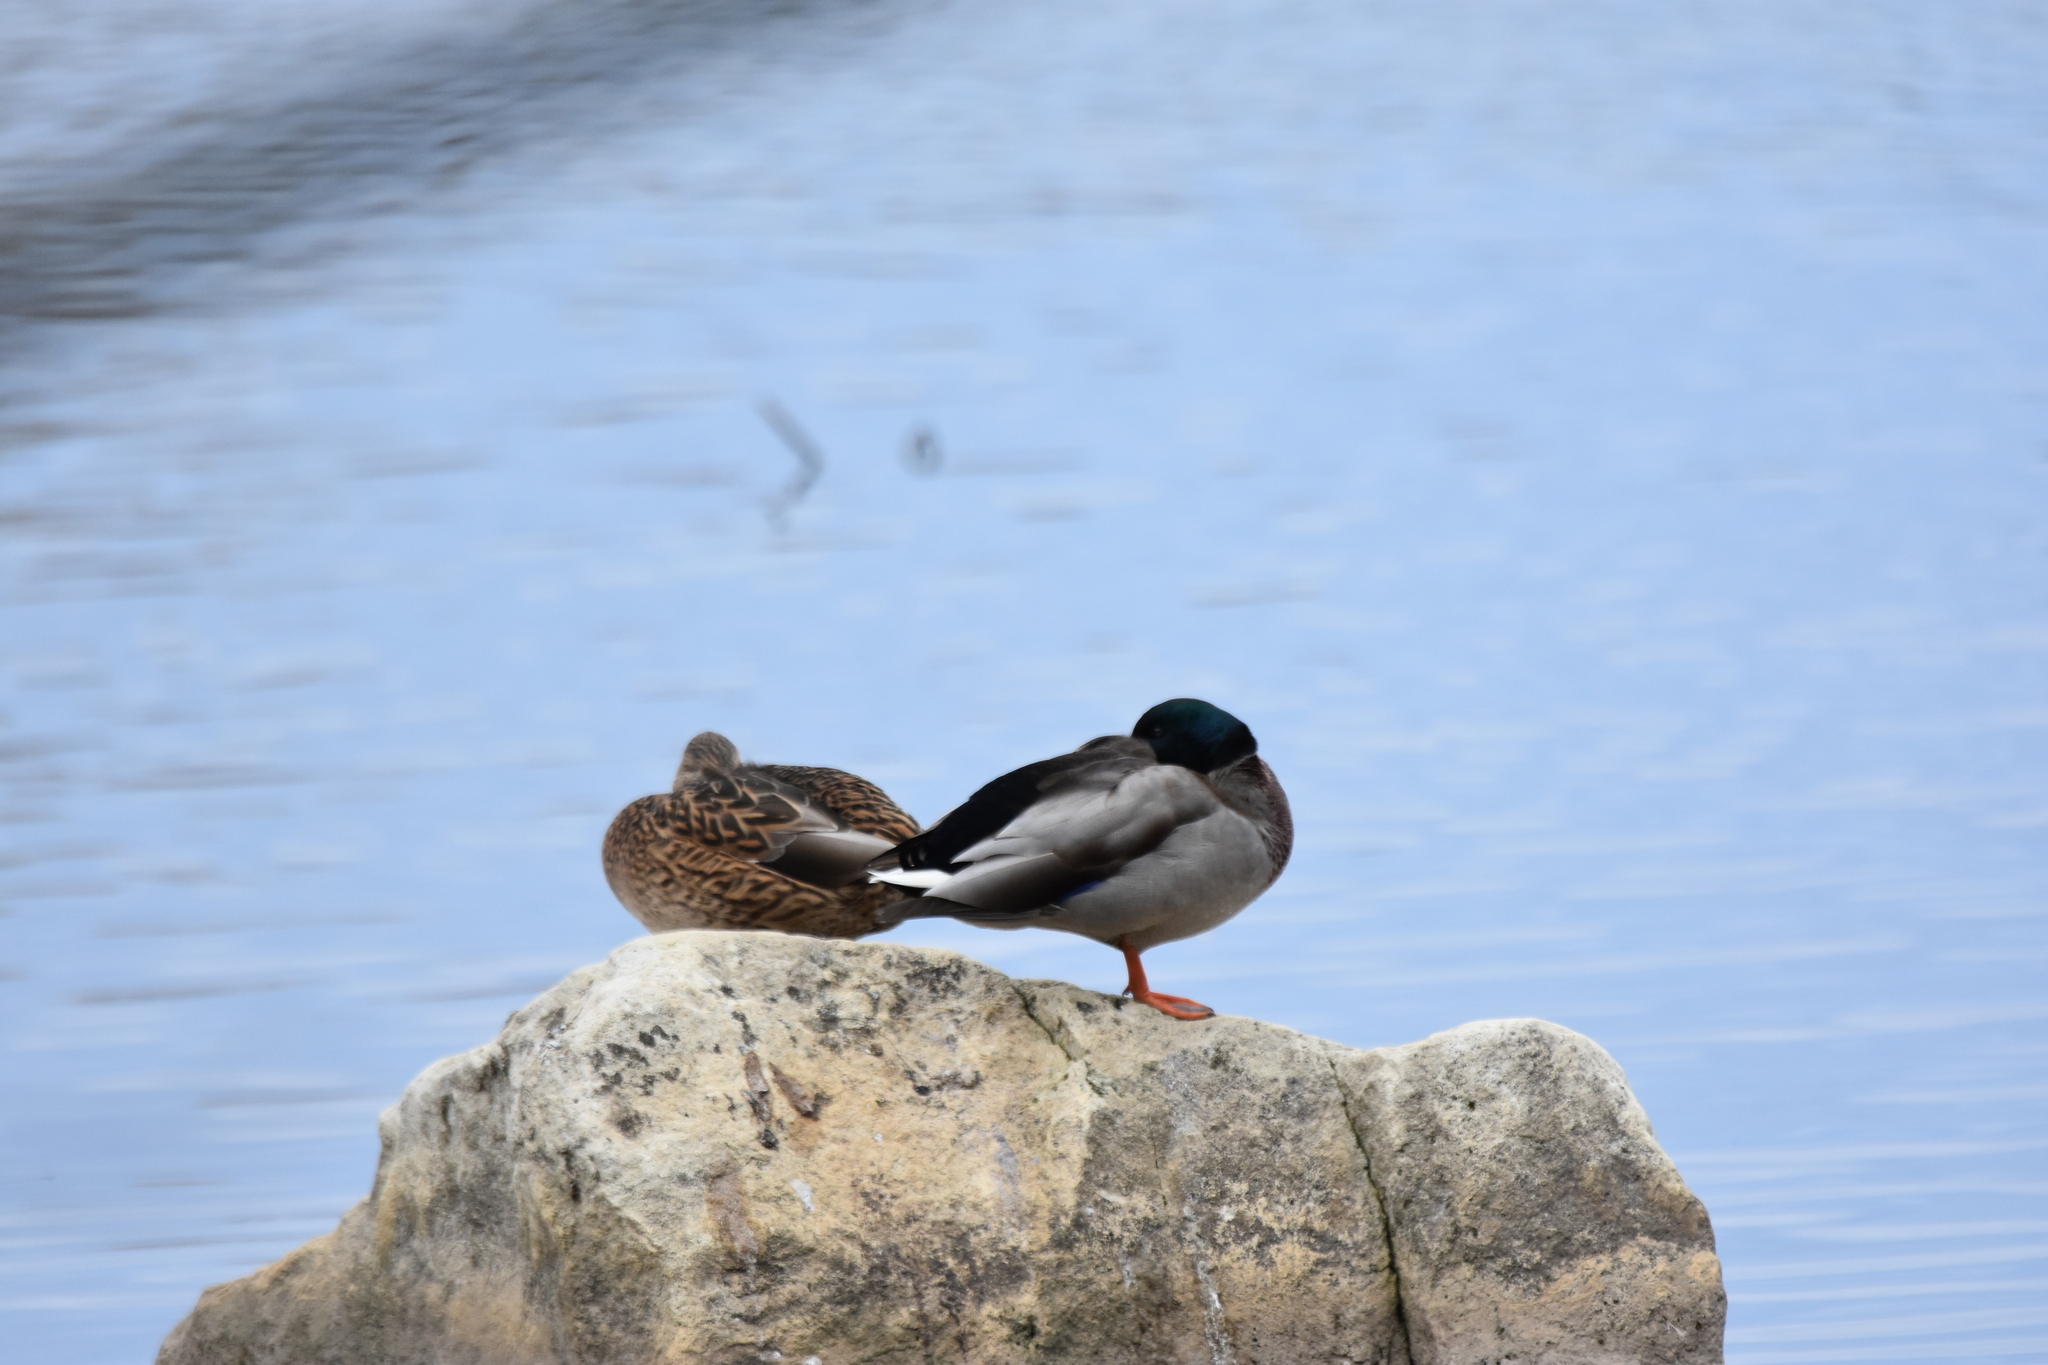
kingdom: Animalia
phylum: Chordata
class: Aves
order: Anseriformes
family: Anatidae
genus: Anas
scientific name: Anas platyrhynchos
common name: Mallard
